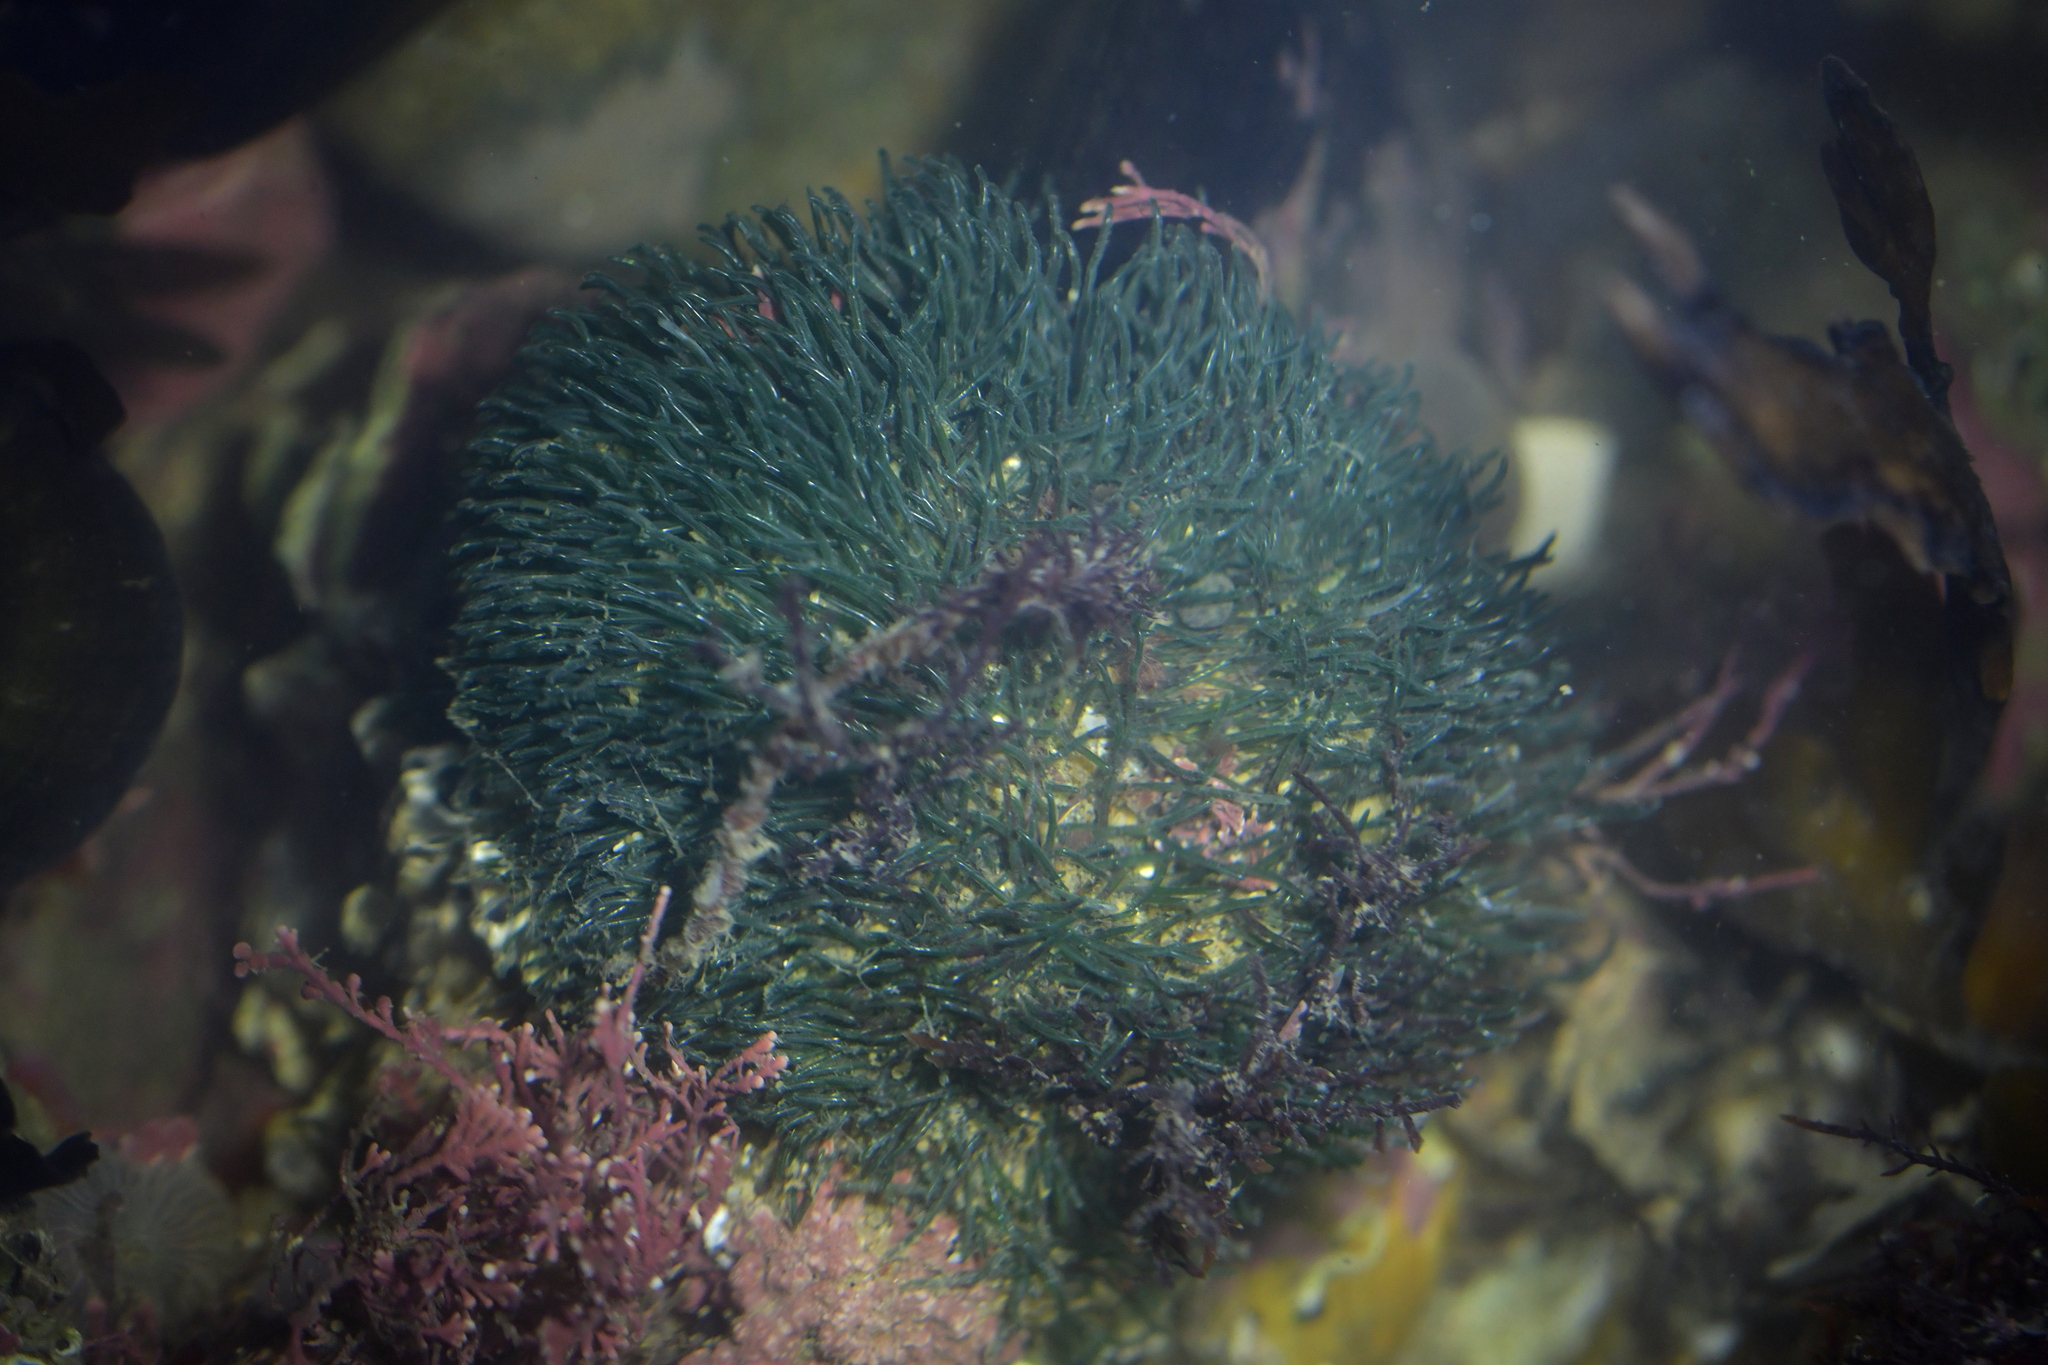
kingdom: Plantae
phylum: Chlorophyta
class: Ulvophyceae
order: Cladophorales
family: Cladophoraceae
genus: Lychaete
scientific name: Lychaete herpestica
